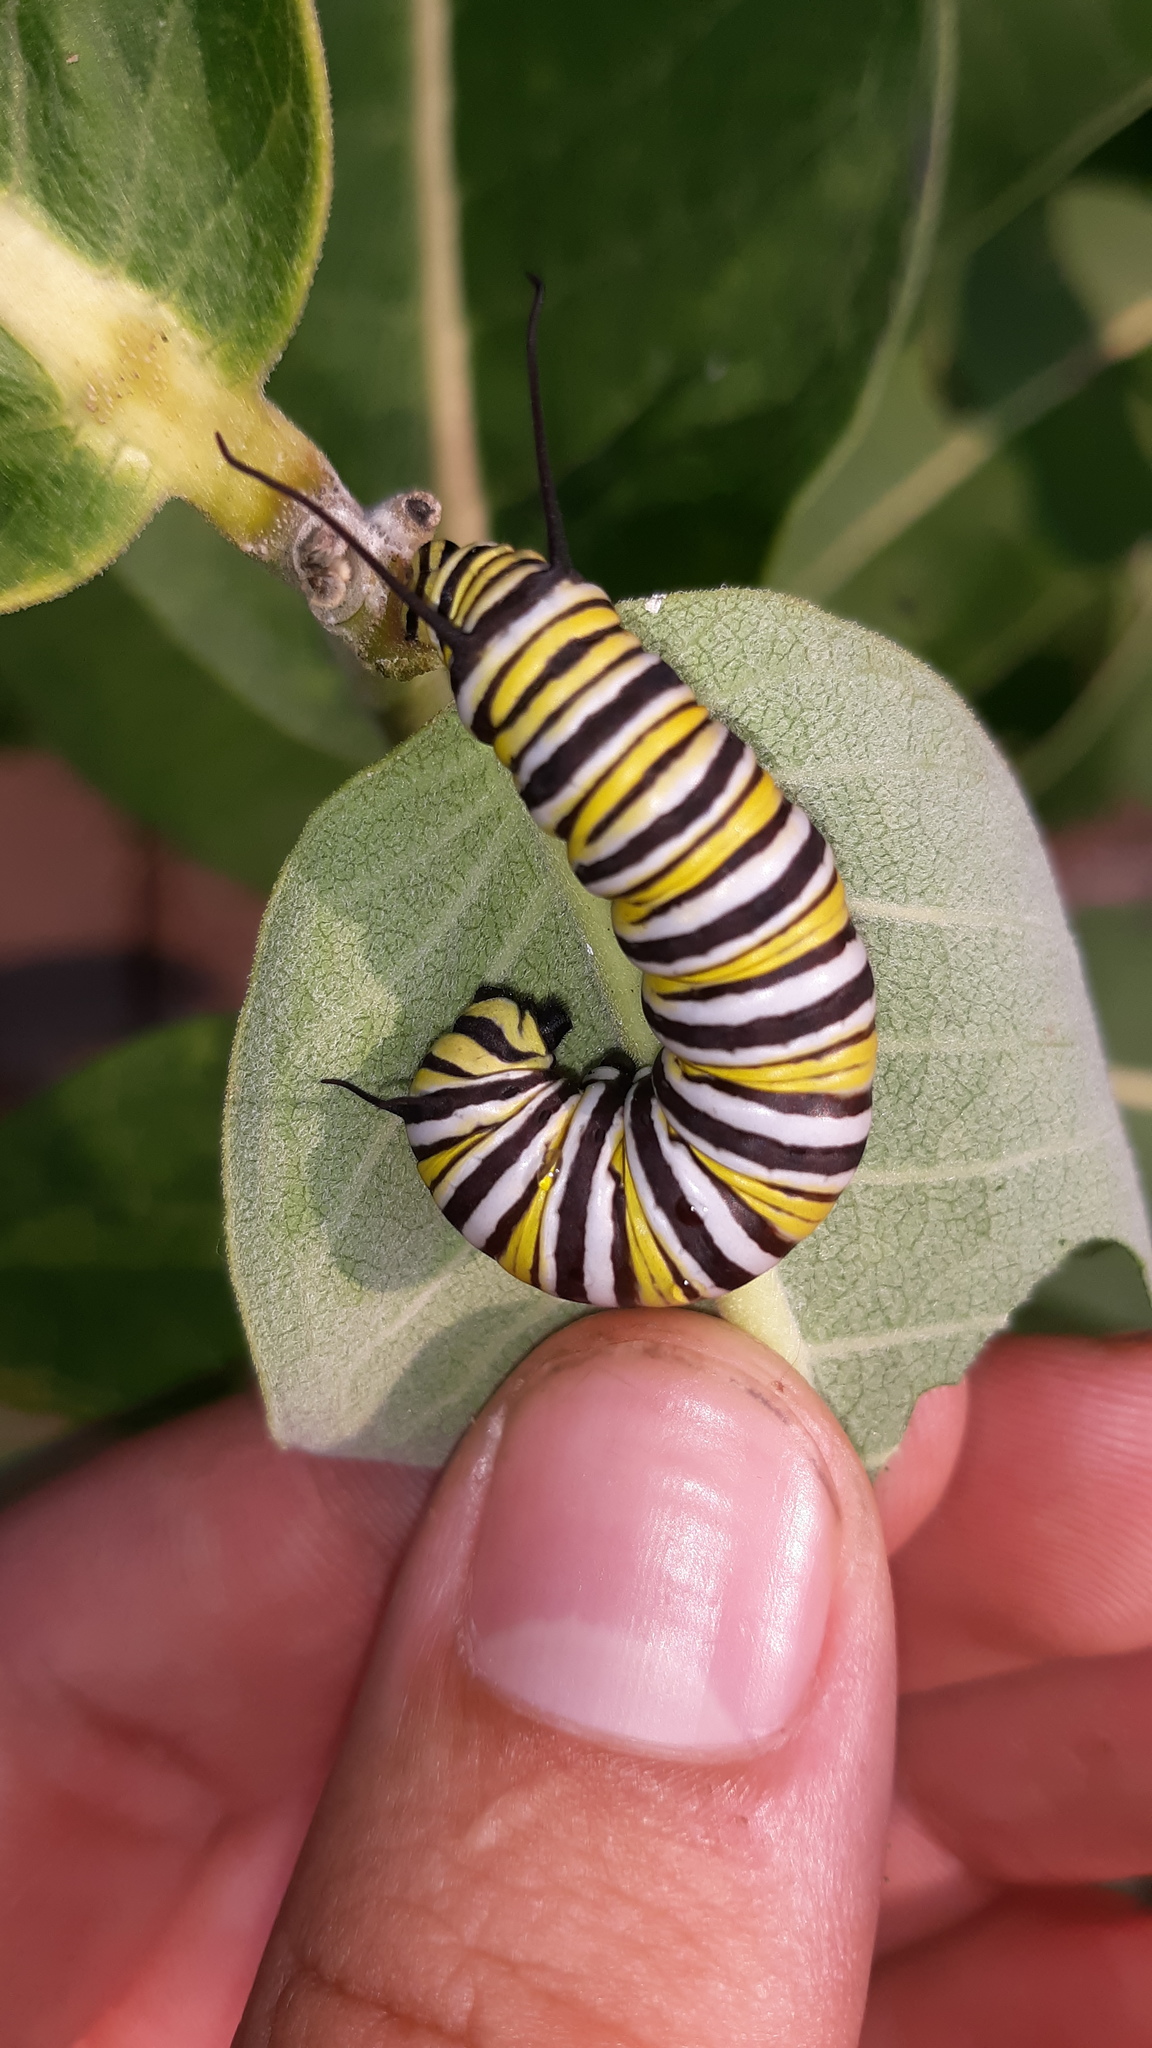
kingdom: Animalia
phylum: Arthropoda
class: Insecta
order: Lepidoptera
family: Nymphalidae
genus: Danaus
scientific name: Danaus plexippus
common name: Monarch
